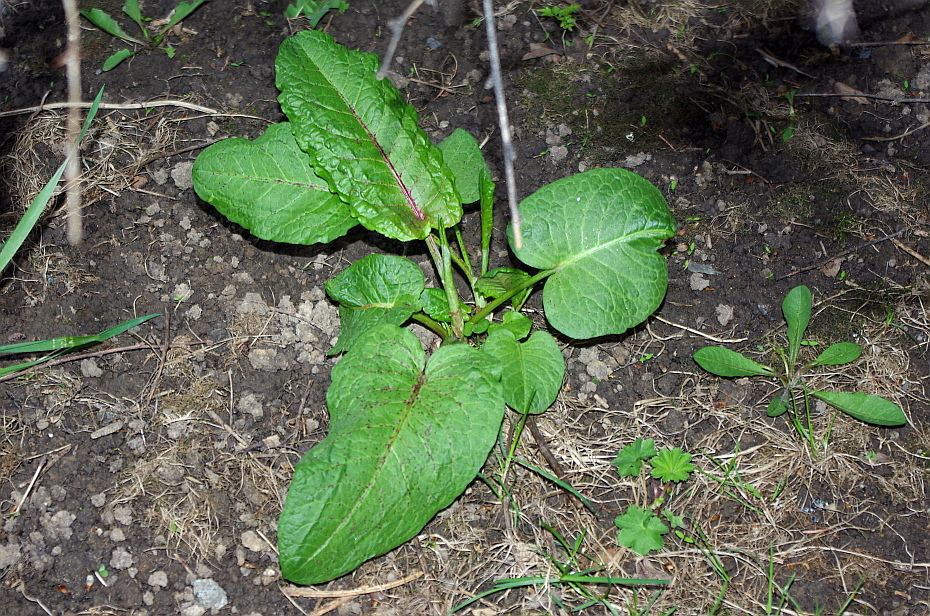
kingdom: Plantae
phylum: Tracheophyta
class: Magnoliopsida
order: Caryophyllales
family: Polygonaceae
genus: Rumex
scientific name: Rumex obtusifolius
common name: Bitter dock
